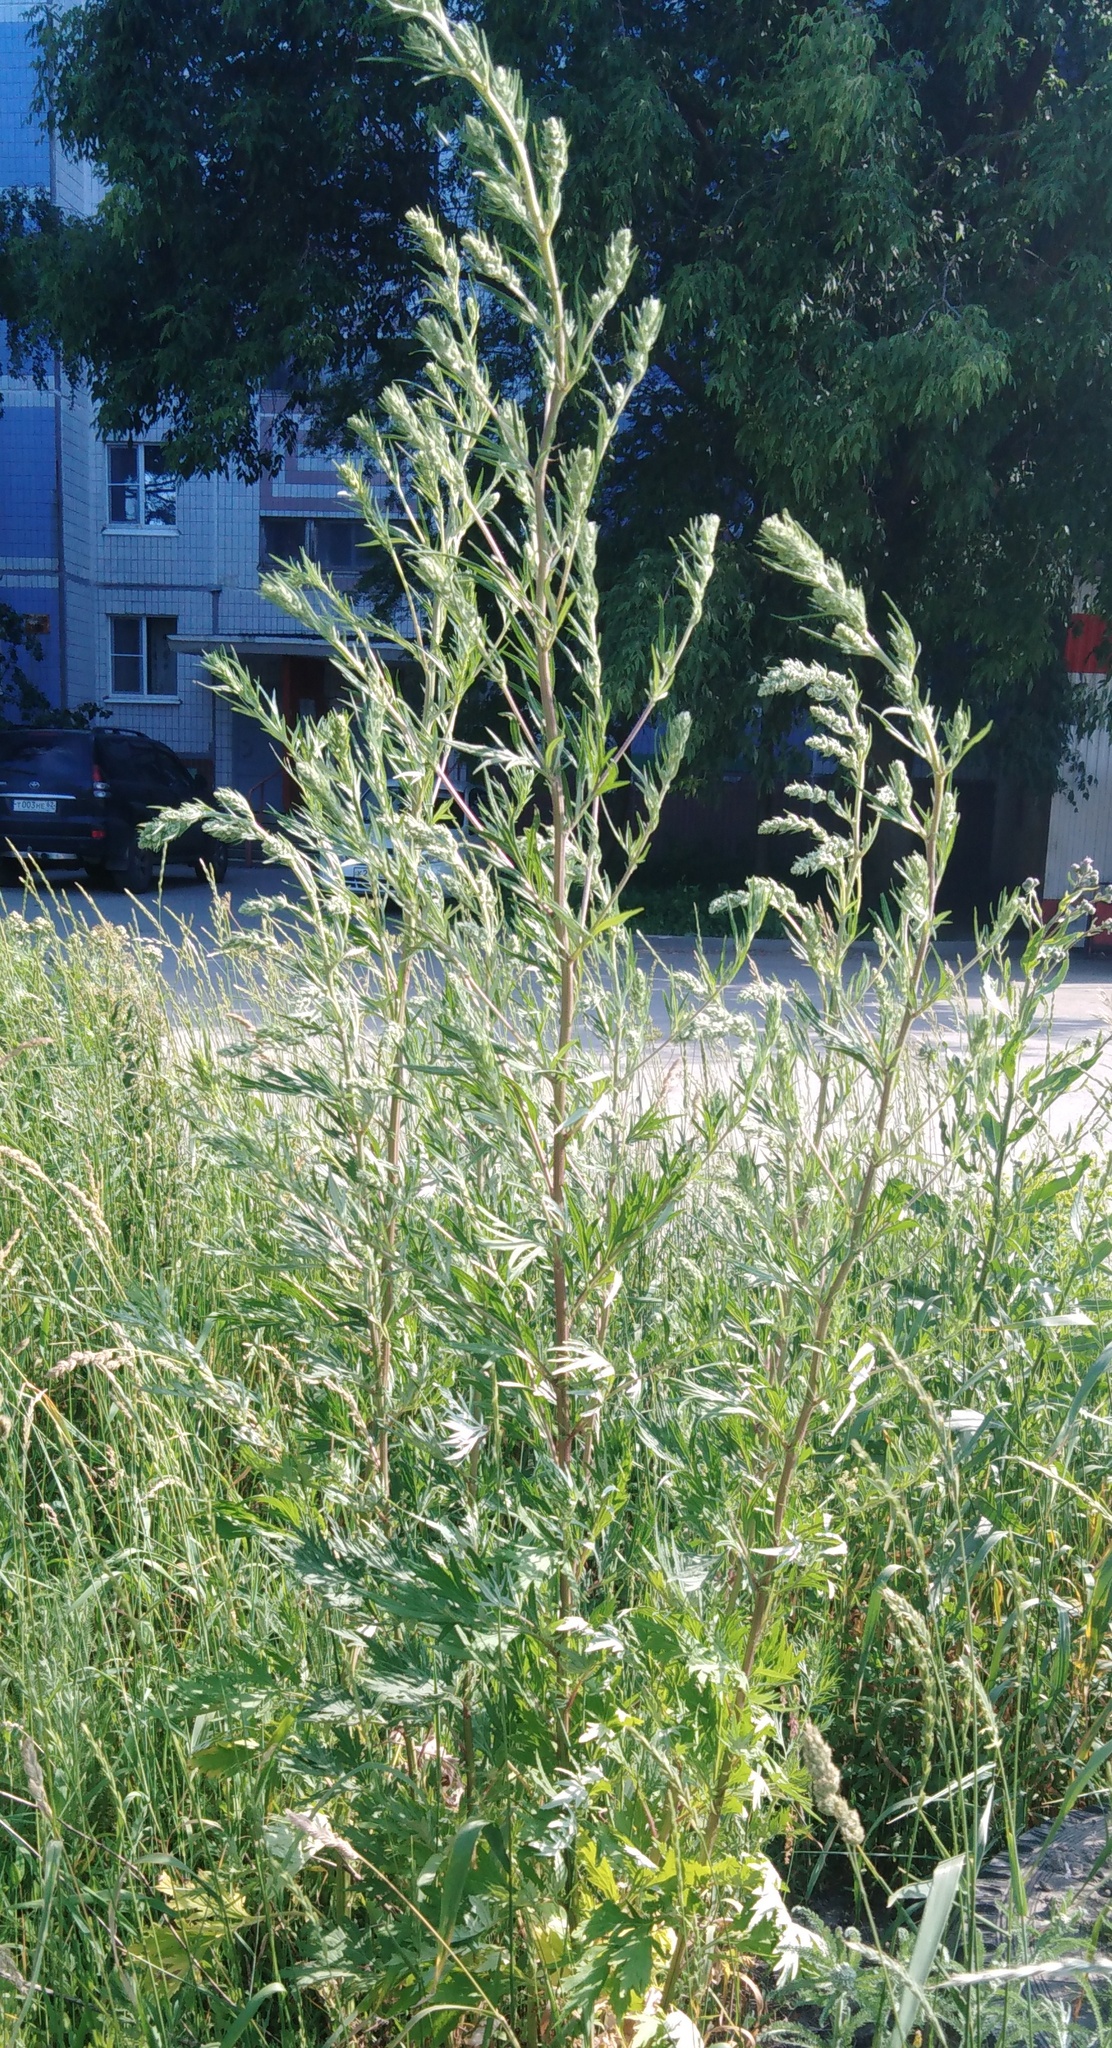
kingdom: Plantae
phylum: Tracheophyta
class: Magnoliopsida
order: Asterales
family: Asteraceae
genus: Artemisia
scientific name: Artemisia vulgaris
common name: Mugwort
